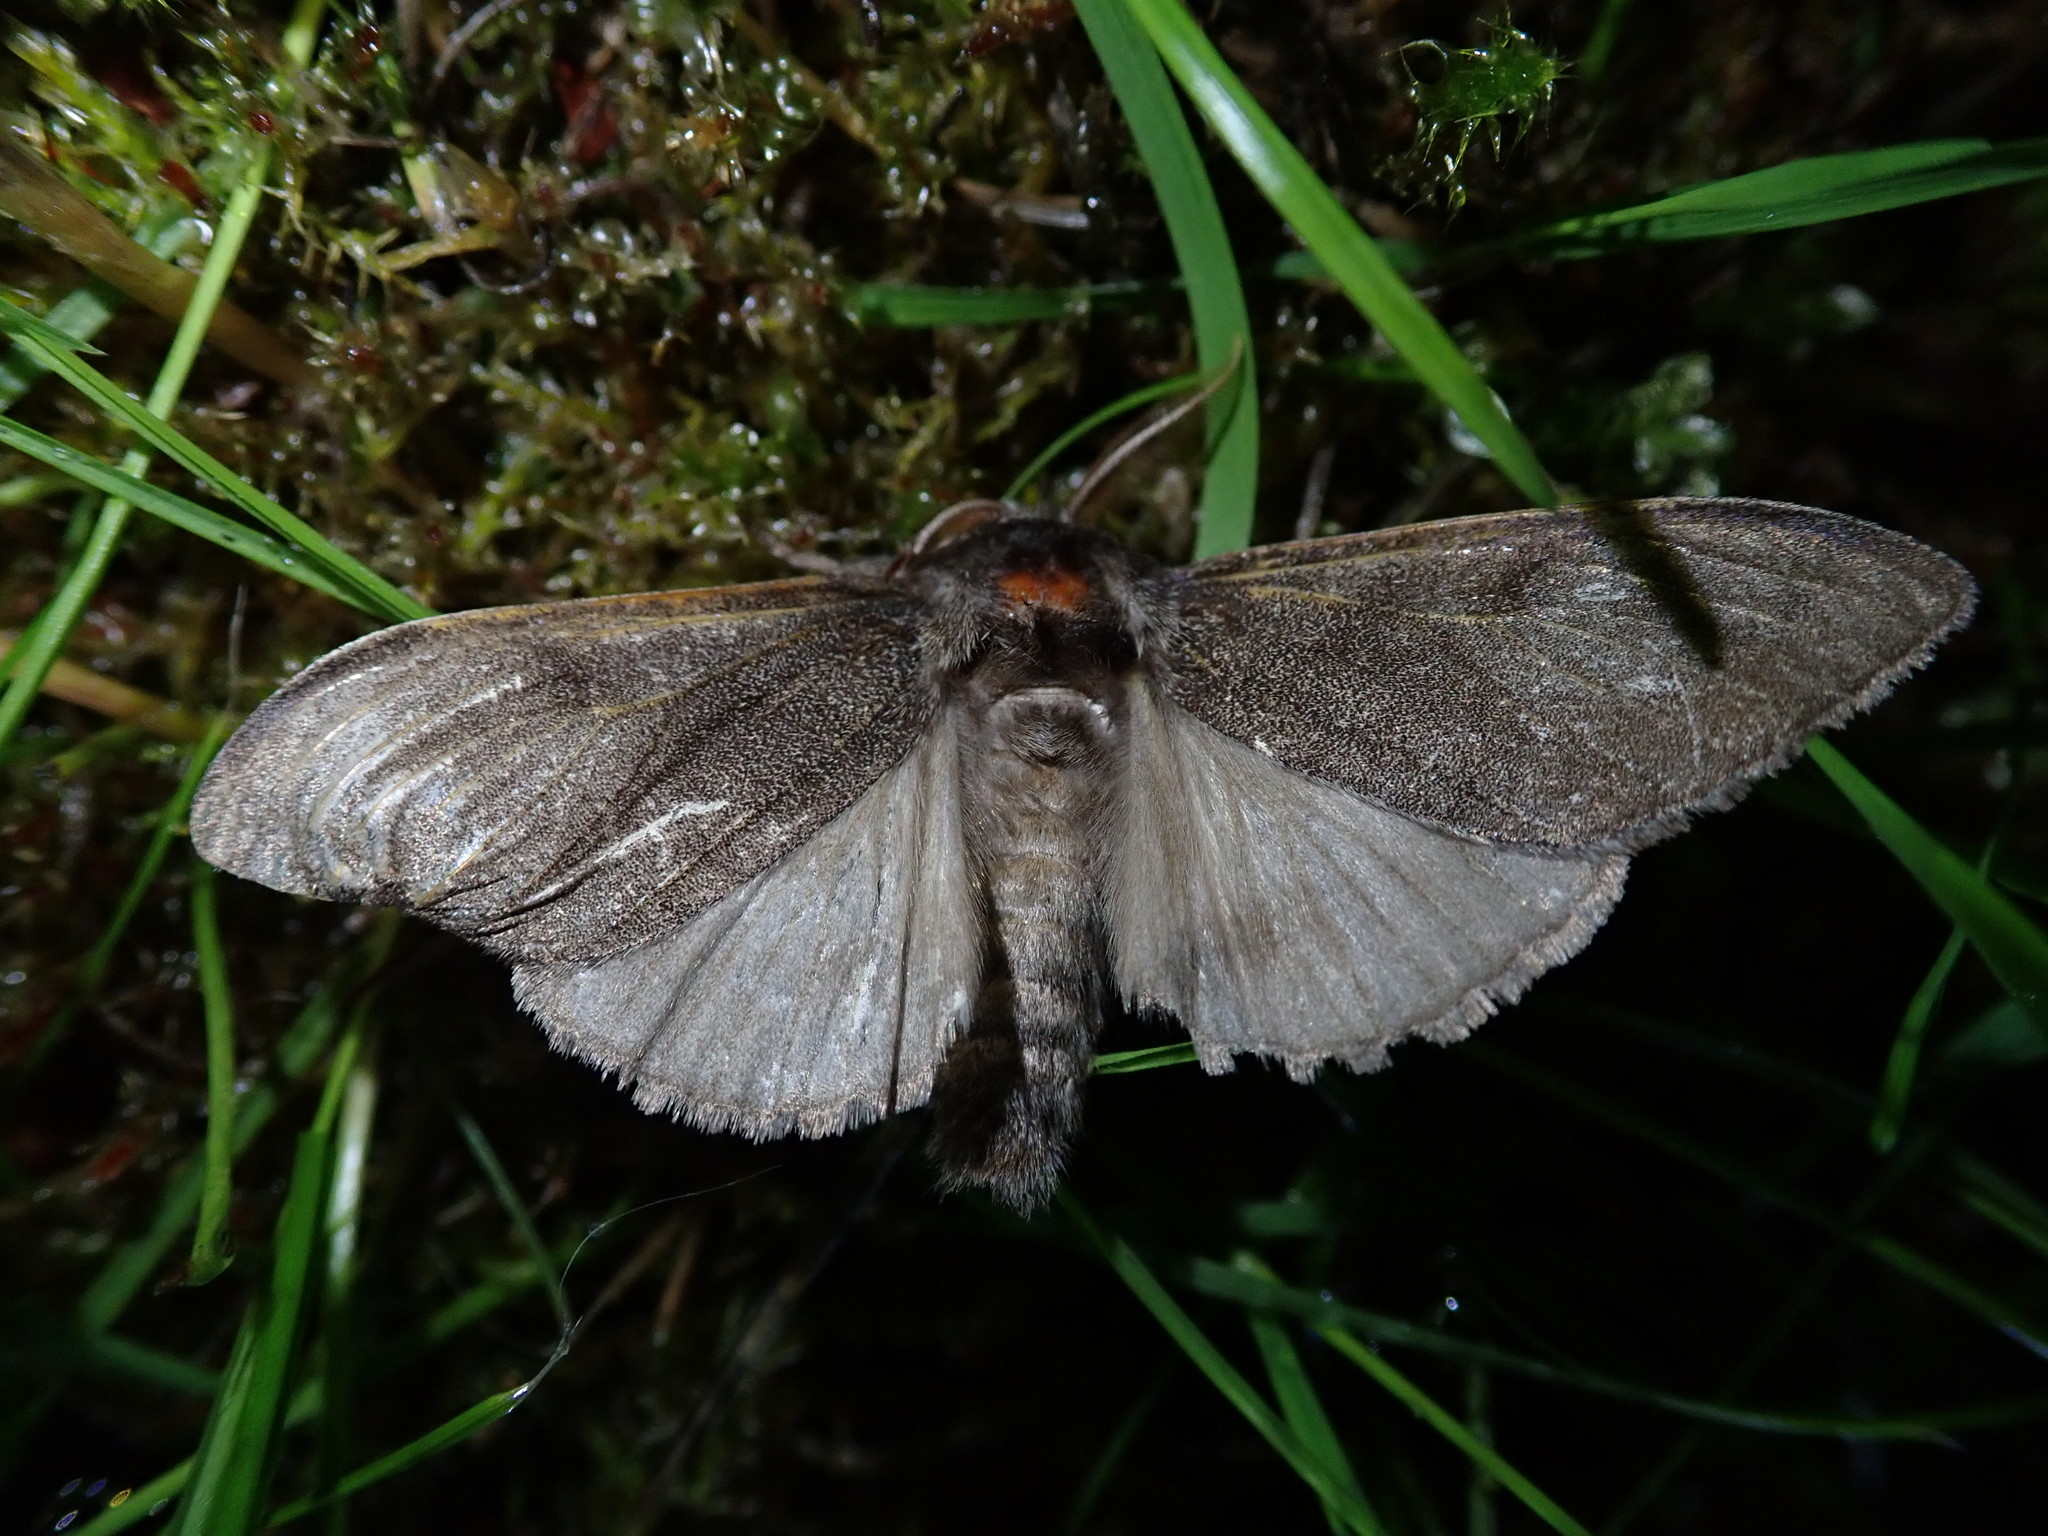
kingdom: Animalia
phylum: Arthropoda
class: Insecta
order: Lepidoptera
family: Erebidae
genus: Calliteara
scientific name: Calliteara pudibunda
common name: Pale tussock
